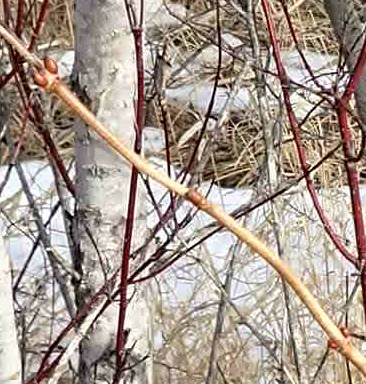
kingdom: Plantae
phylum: Tracheophyta
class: Magnoliopsida
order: Dipsacales
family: Viburnaceae
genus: Viburnum
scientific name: Viburnum trilobum
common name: American cranberrybush
